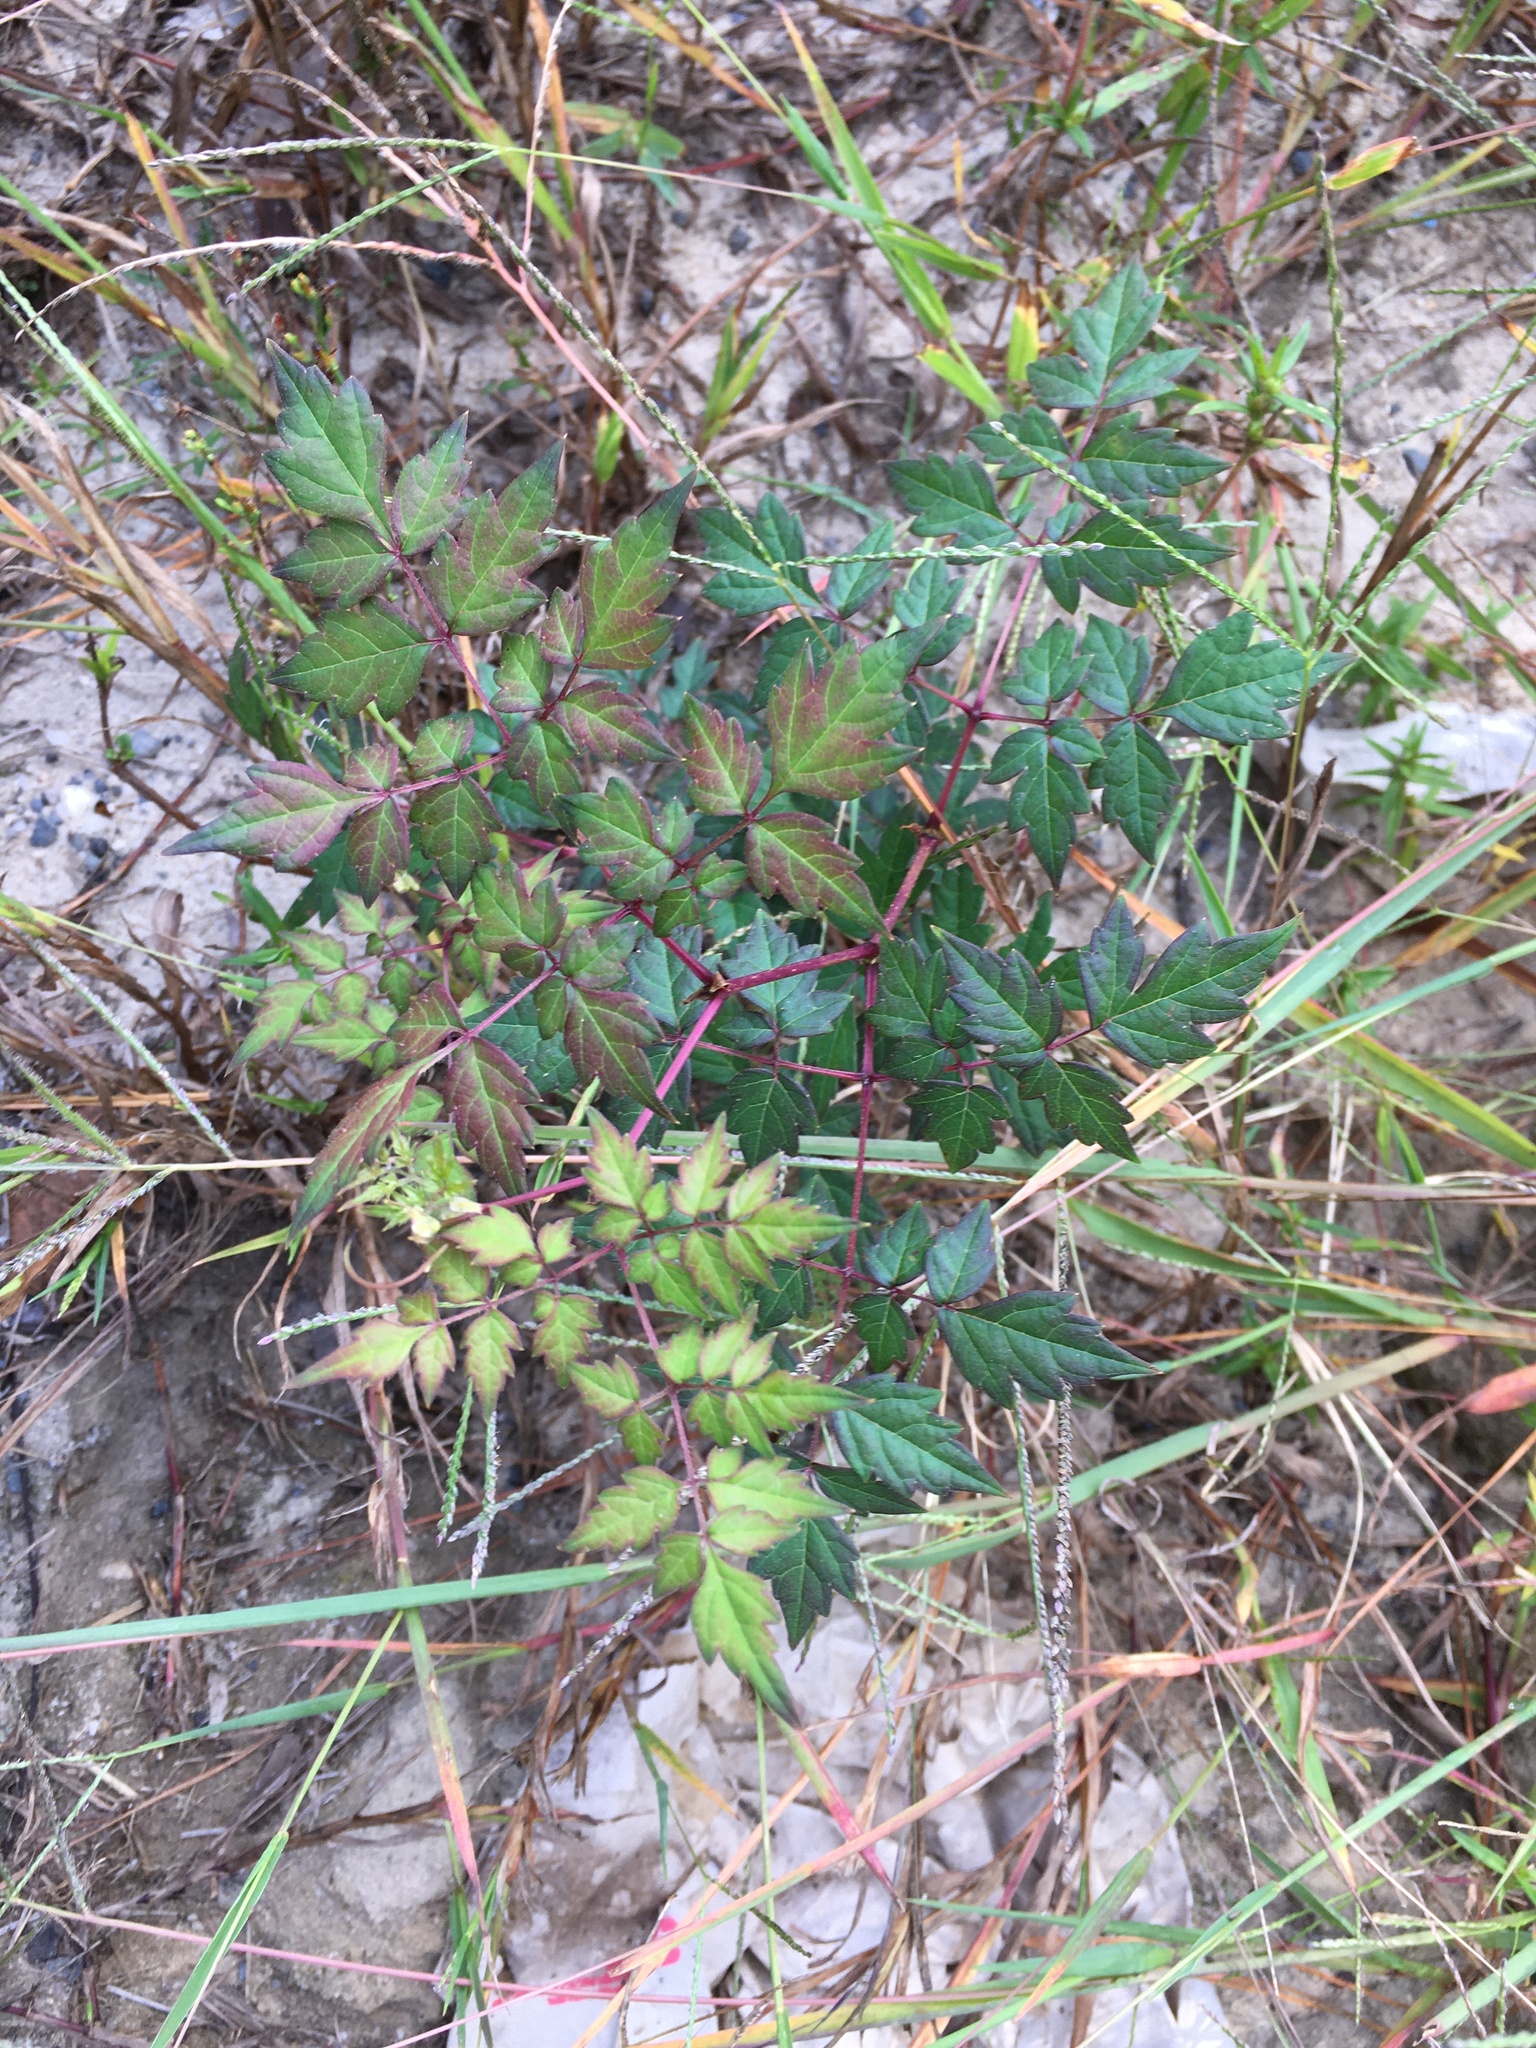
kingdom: Plantae
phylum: Tracheophyta
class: Magnoliopsida
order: Vitales
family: Vitaceae
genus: Nekemias
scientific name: Nekemias arborea
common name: Peppervine
